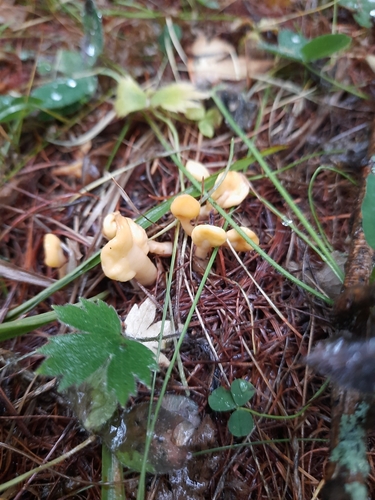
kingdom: Fungi
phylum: Ascomycota
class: Leotiomycetes
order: Rhytismatales
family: Cudoniaceae
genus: Spathularia
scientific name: Spathularia flavida
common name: Yellow fan
